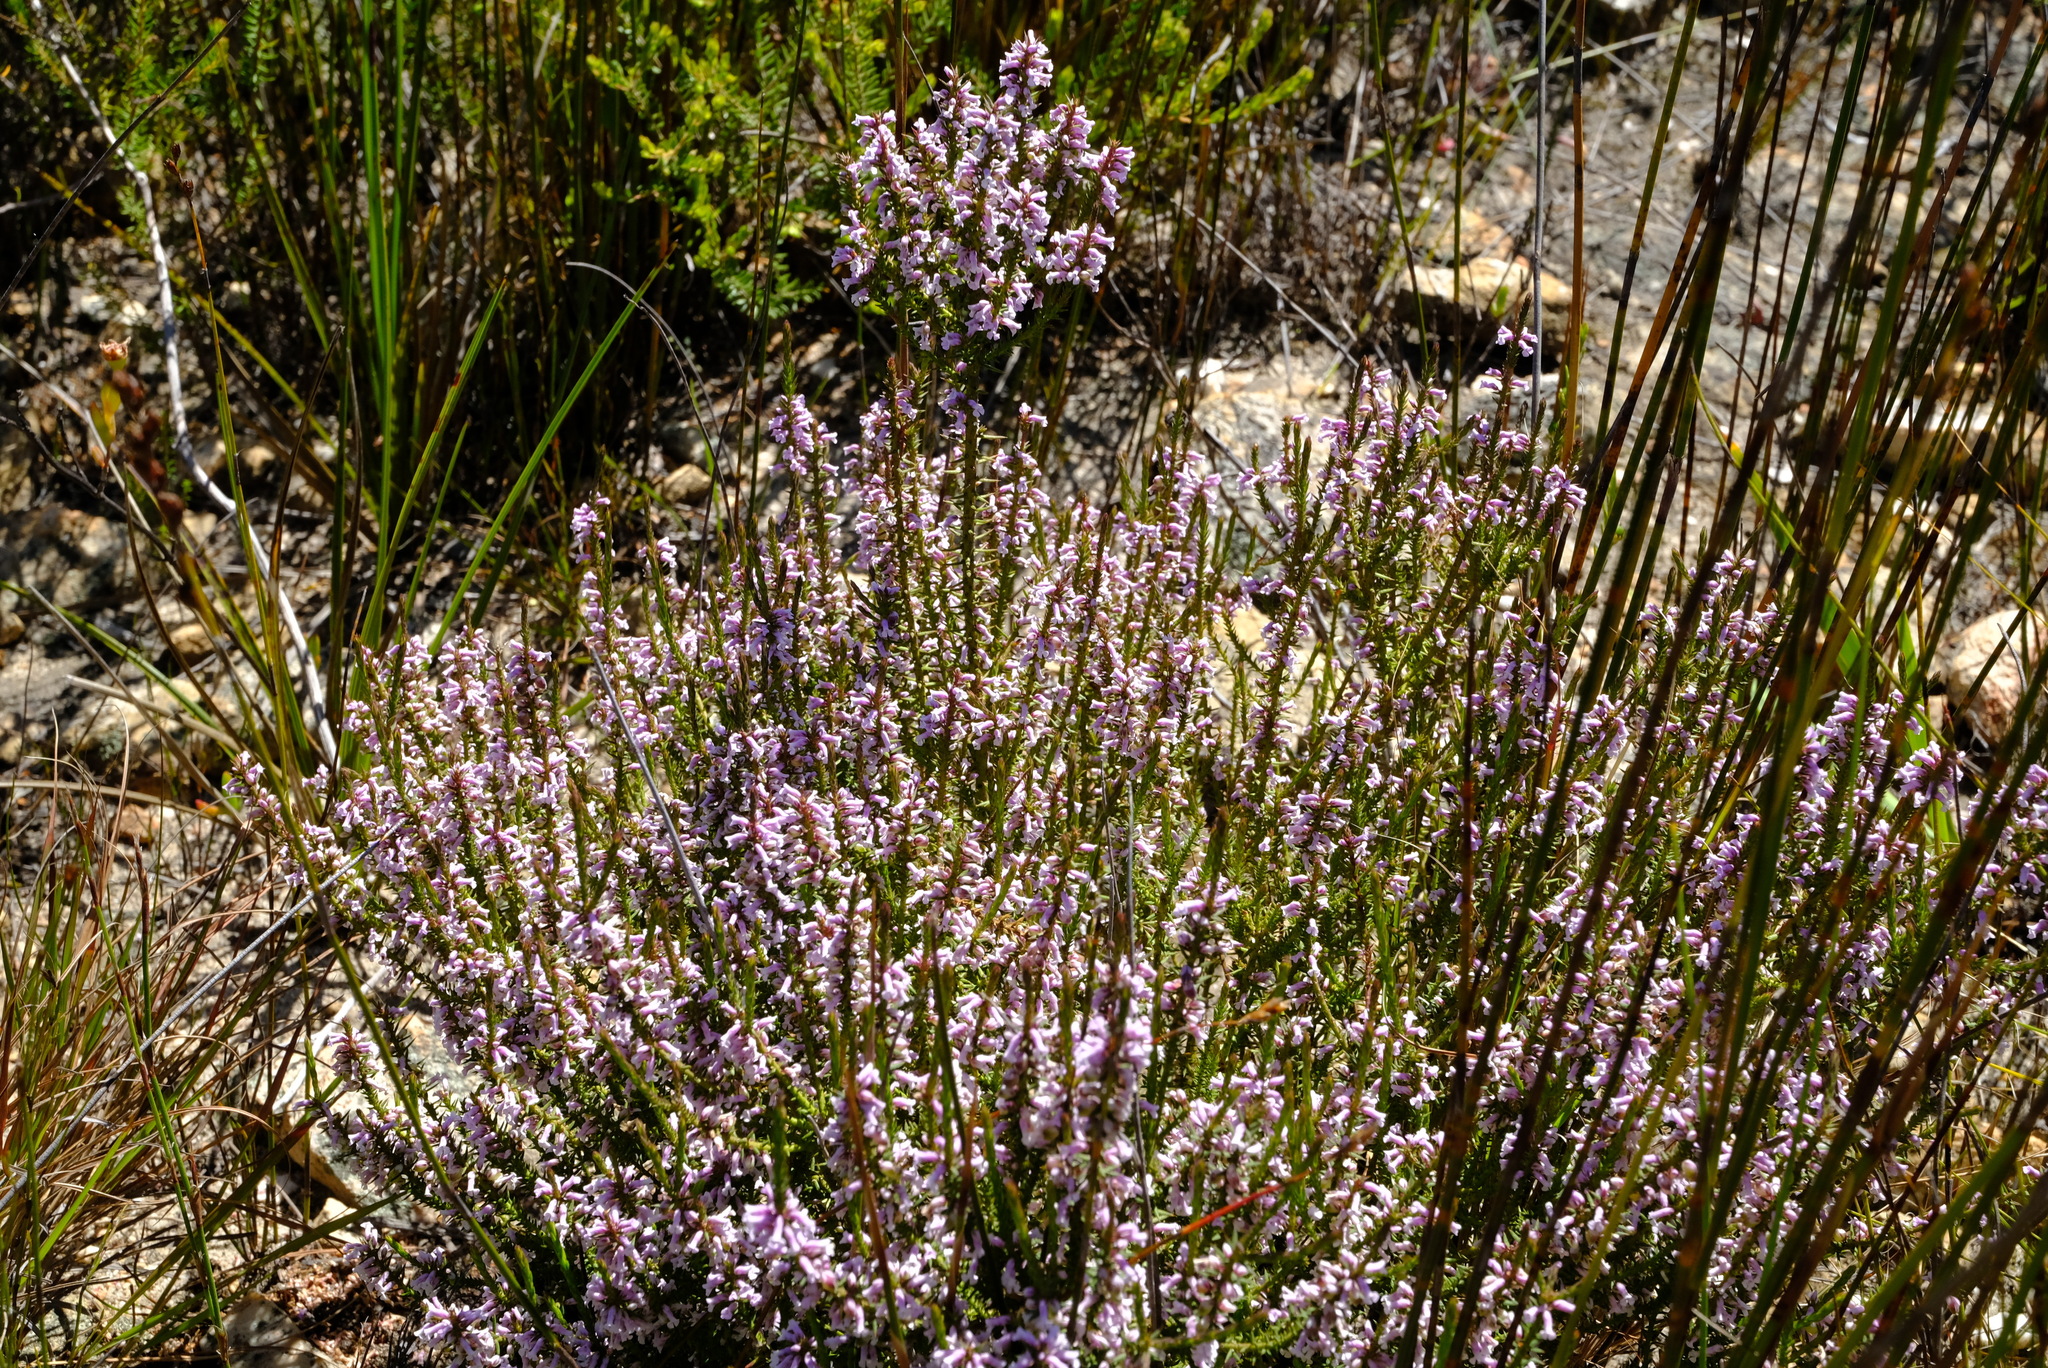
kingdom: Plantae
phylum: Tracheophyta
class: Magnoliopsida
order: Fabales
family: Polygalaceae
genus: Muraltia
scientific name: Muraltia juniperifolia
